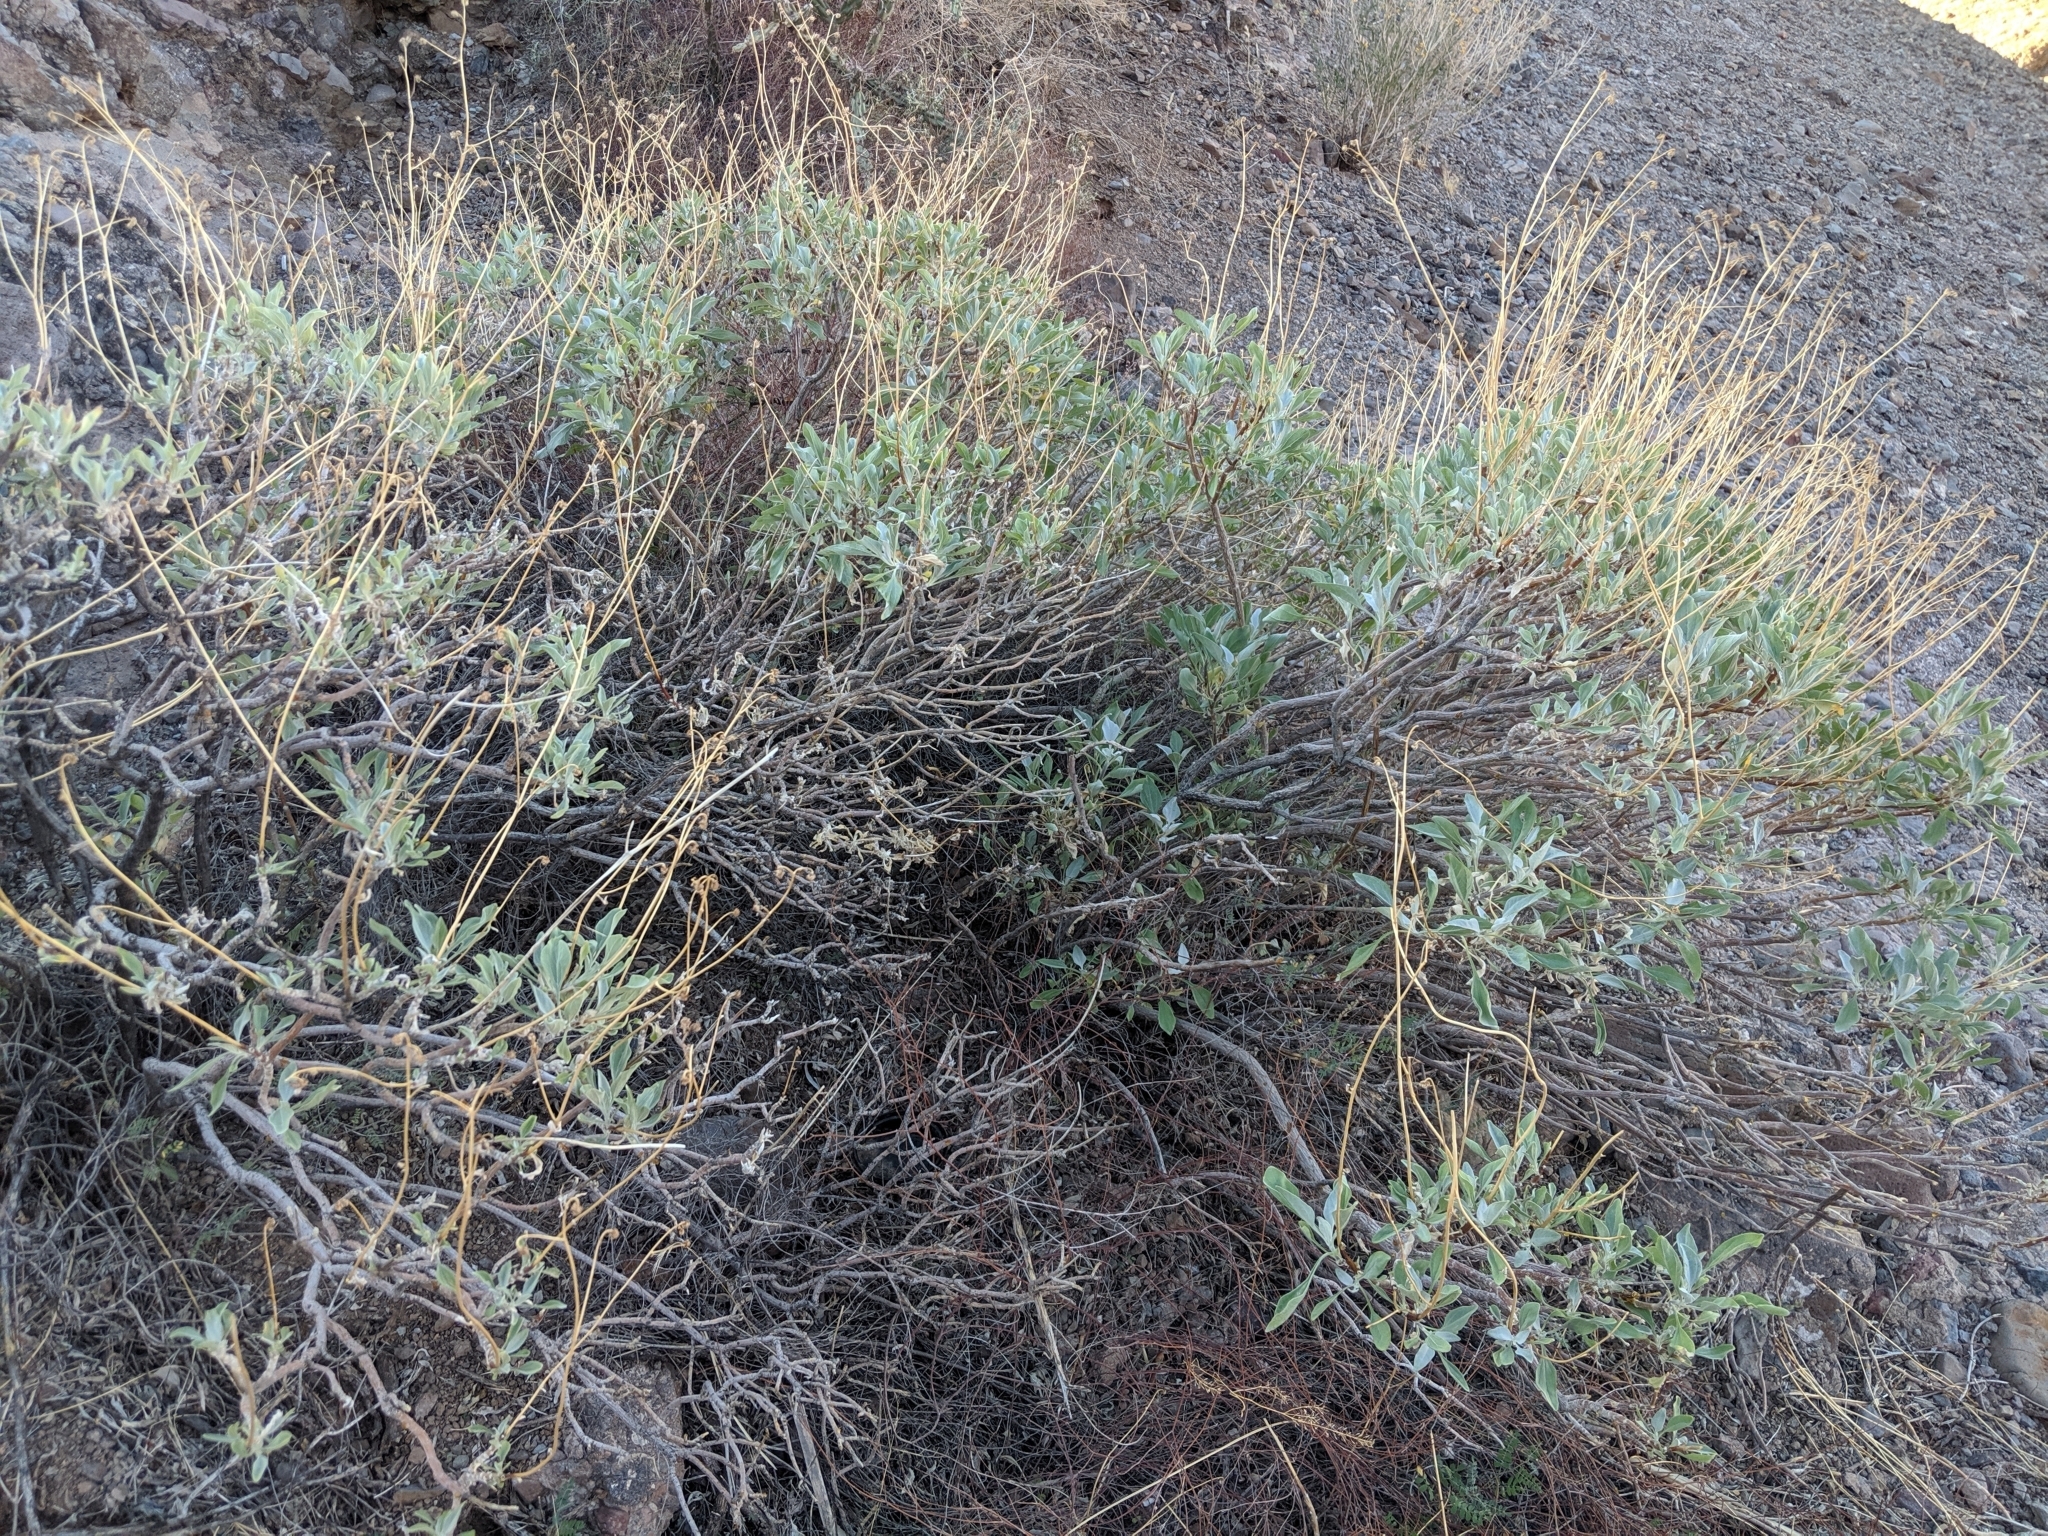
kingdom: Plantae
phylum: Tracheophyta
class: Magnoliopsida
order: Asterales
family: Asteraceae
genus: Encelia
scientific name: Encelia farinosa
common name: Brittlebush
